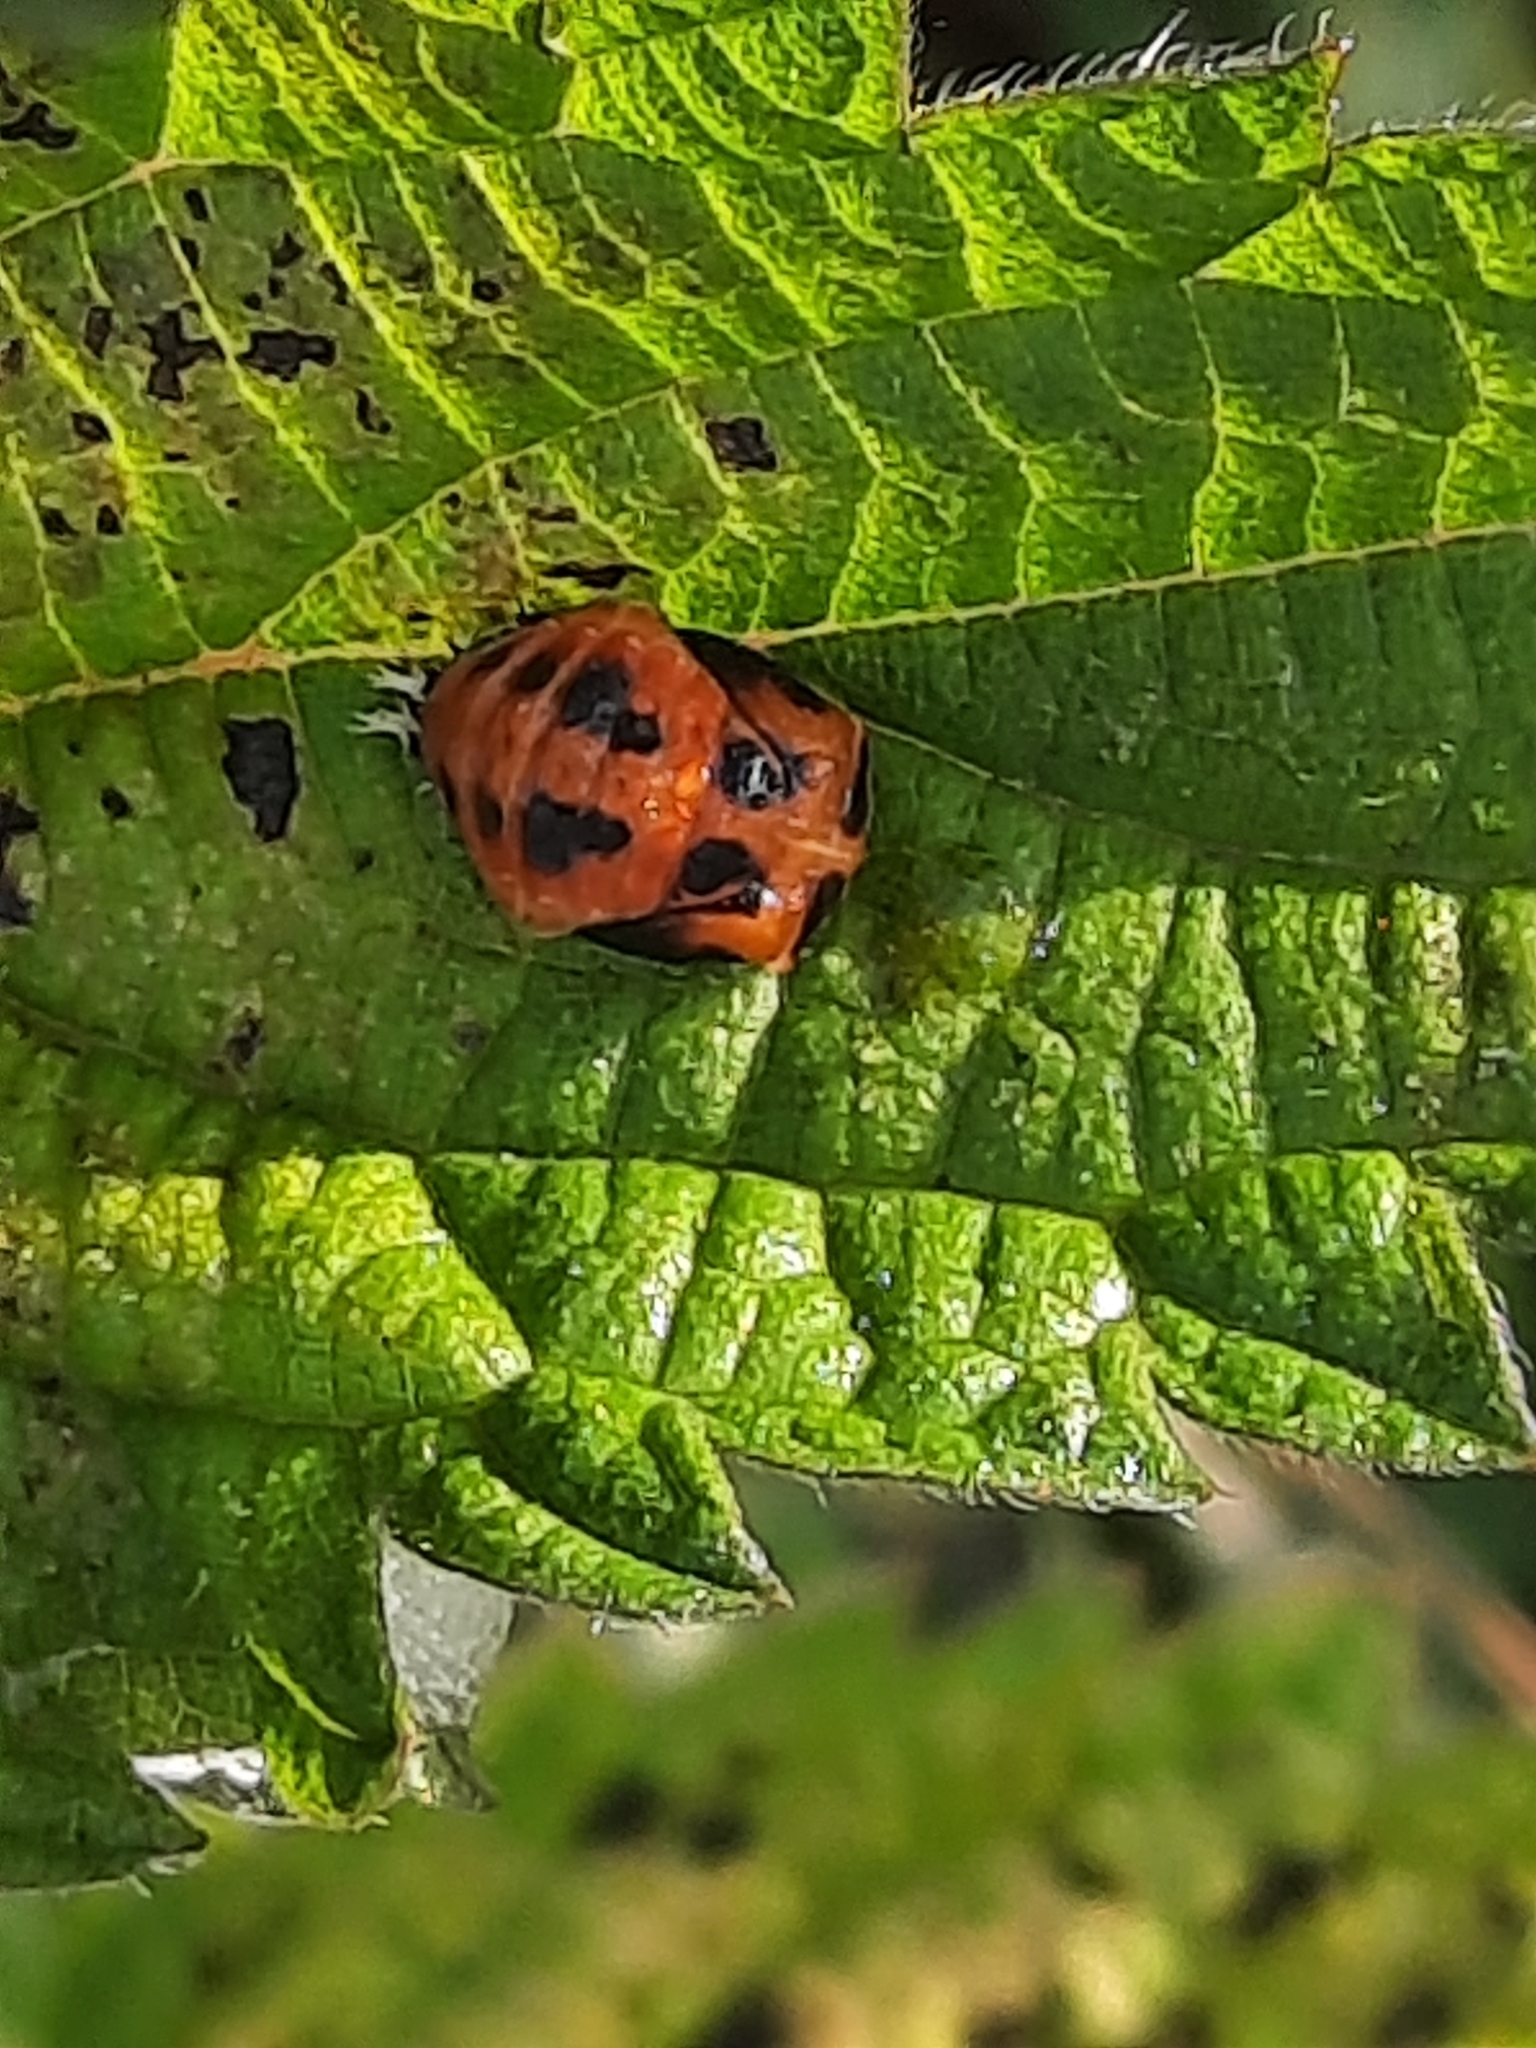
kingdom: Animalia
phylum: Arthropoda
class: Insecta
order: Coleoptera
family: Coccinellidae
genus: Harmonia
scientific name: Harmonia axyridis
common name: Harlequin ladybird
